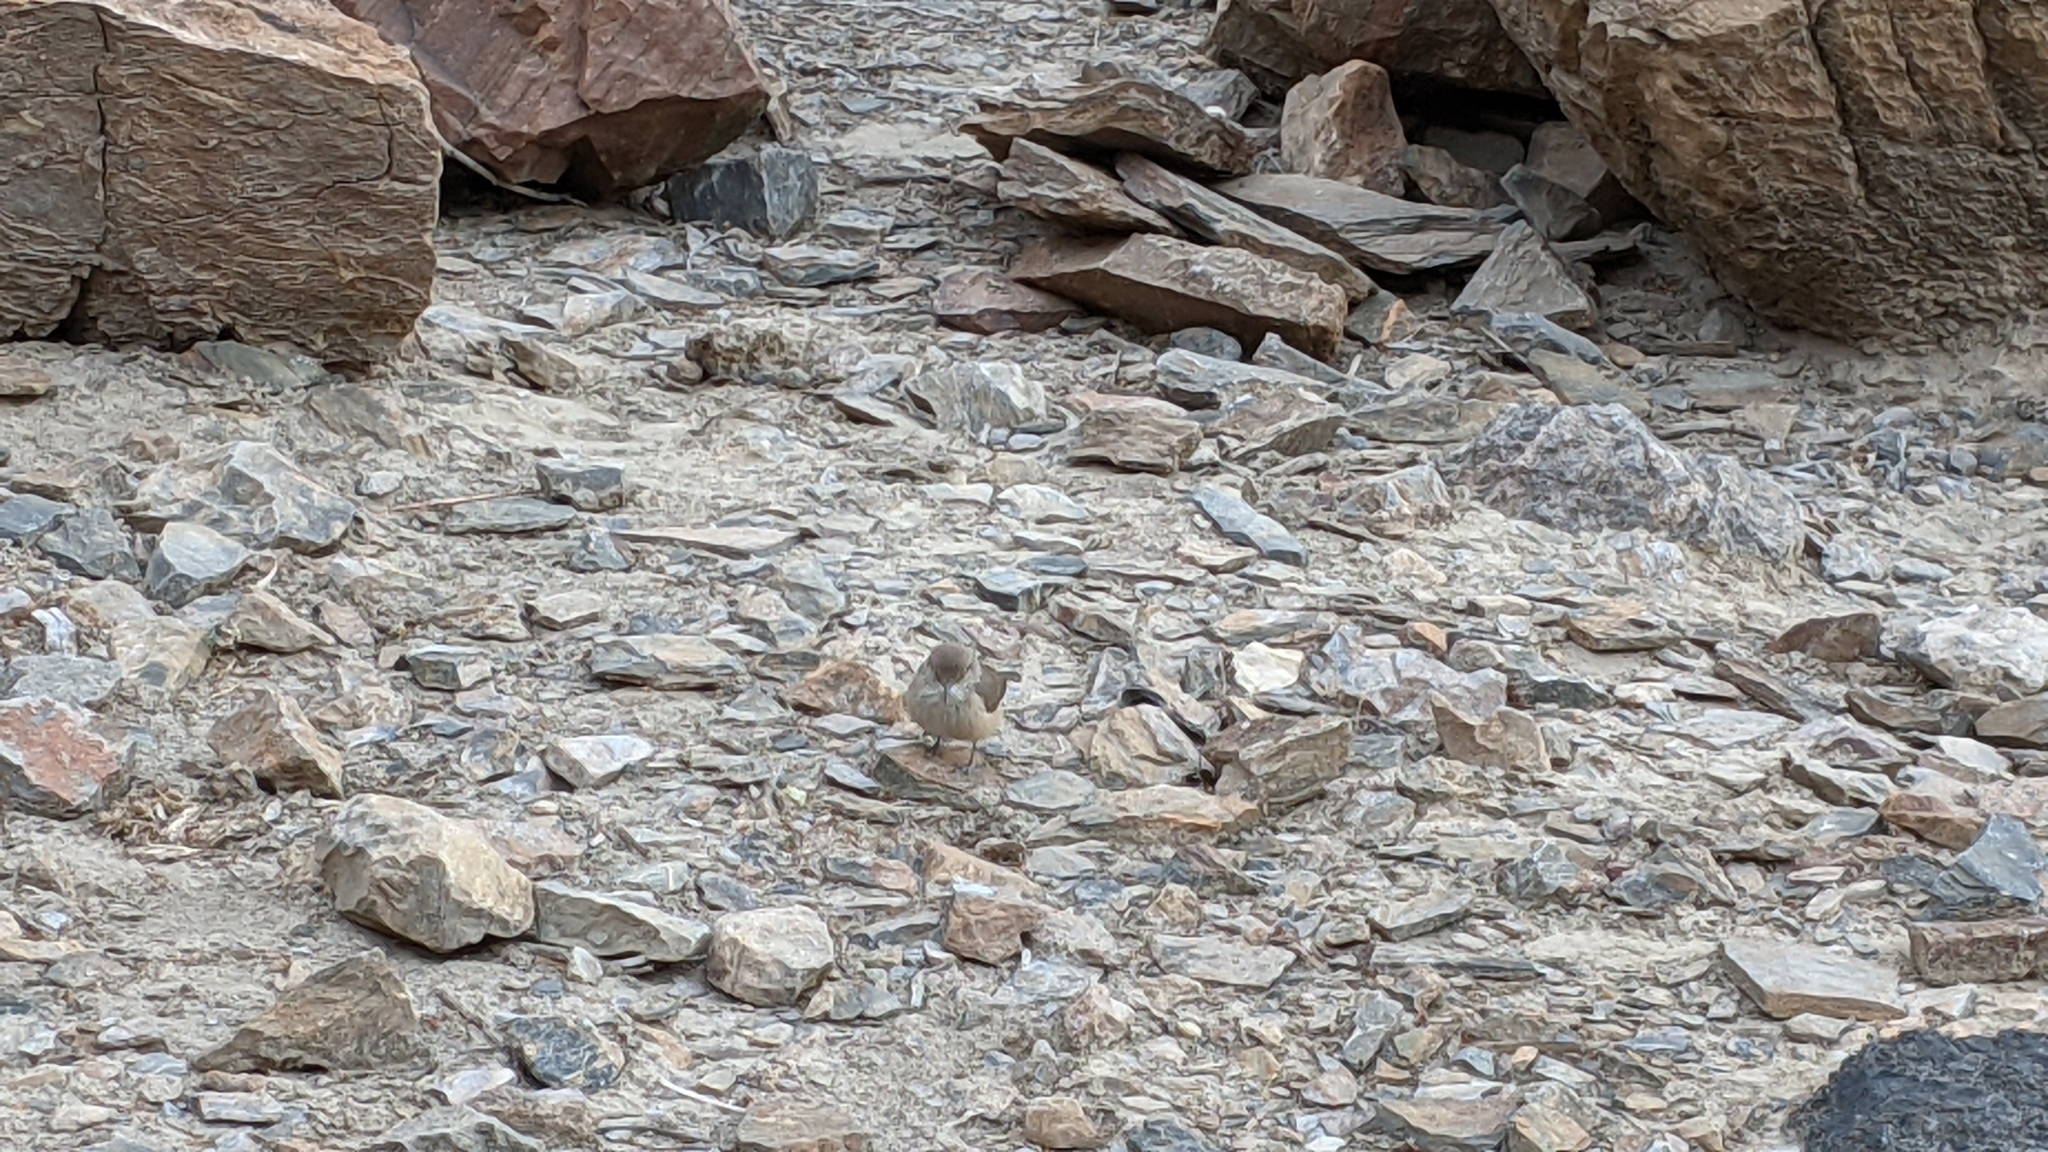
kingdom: Animalia
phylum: Chordata
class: Aves
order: Passeriformes
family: Troglodytidae
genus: Salpinctes
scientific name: Salpinctes obsoletus
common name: Rock wren
